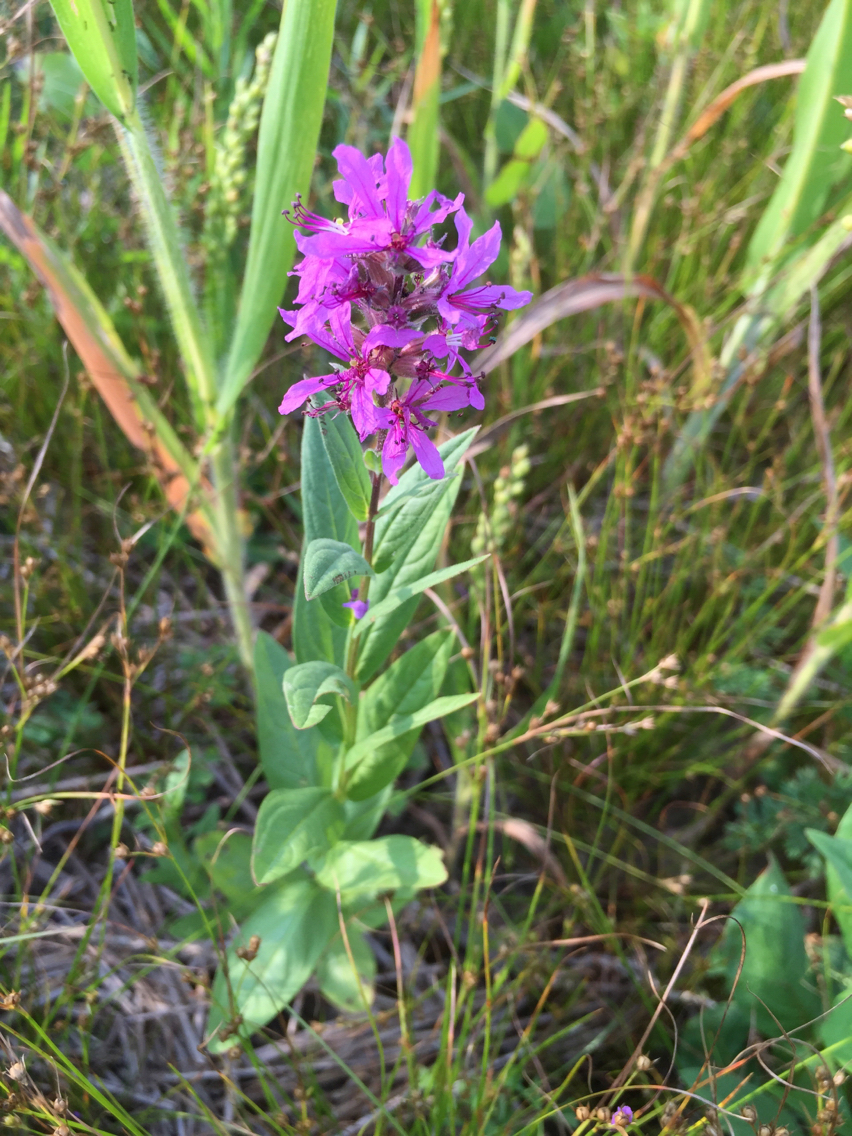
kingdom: Plantae
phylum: Tracheophyta
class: Magnoliopsida
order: Myrtales
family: Lythraceae
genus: Lythrum
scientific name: Lythrum salicaria
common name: Purple loosestrife
